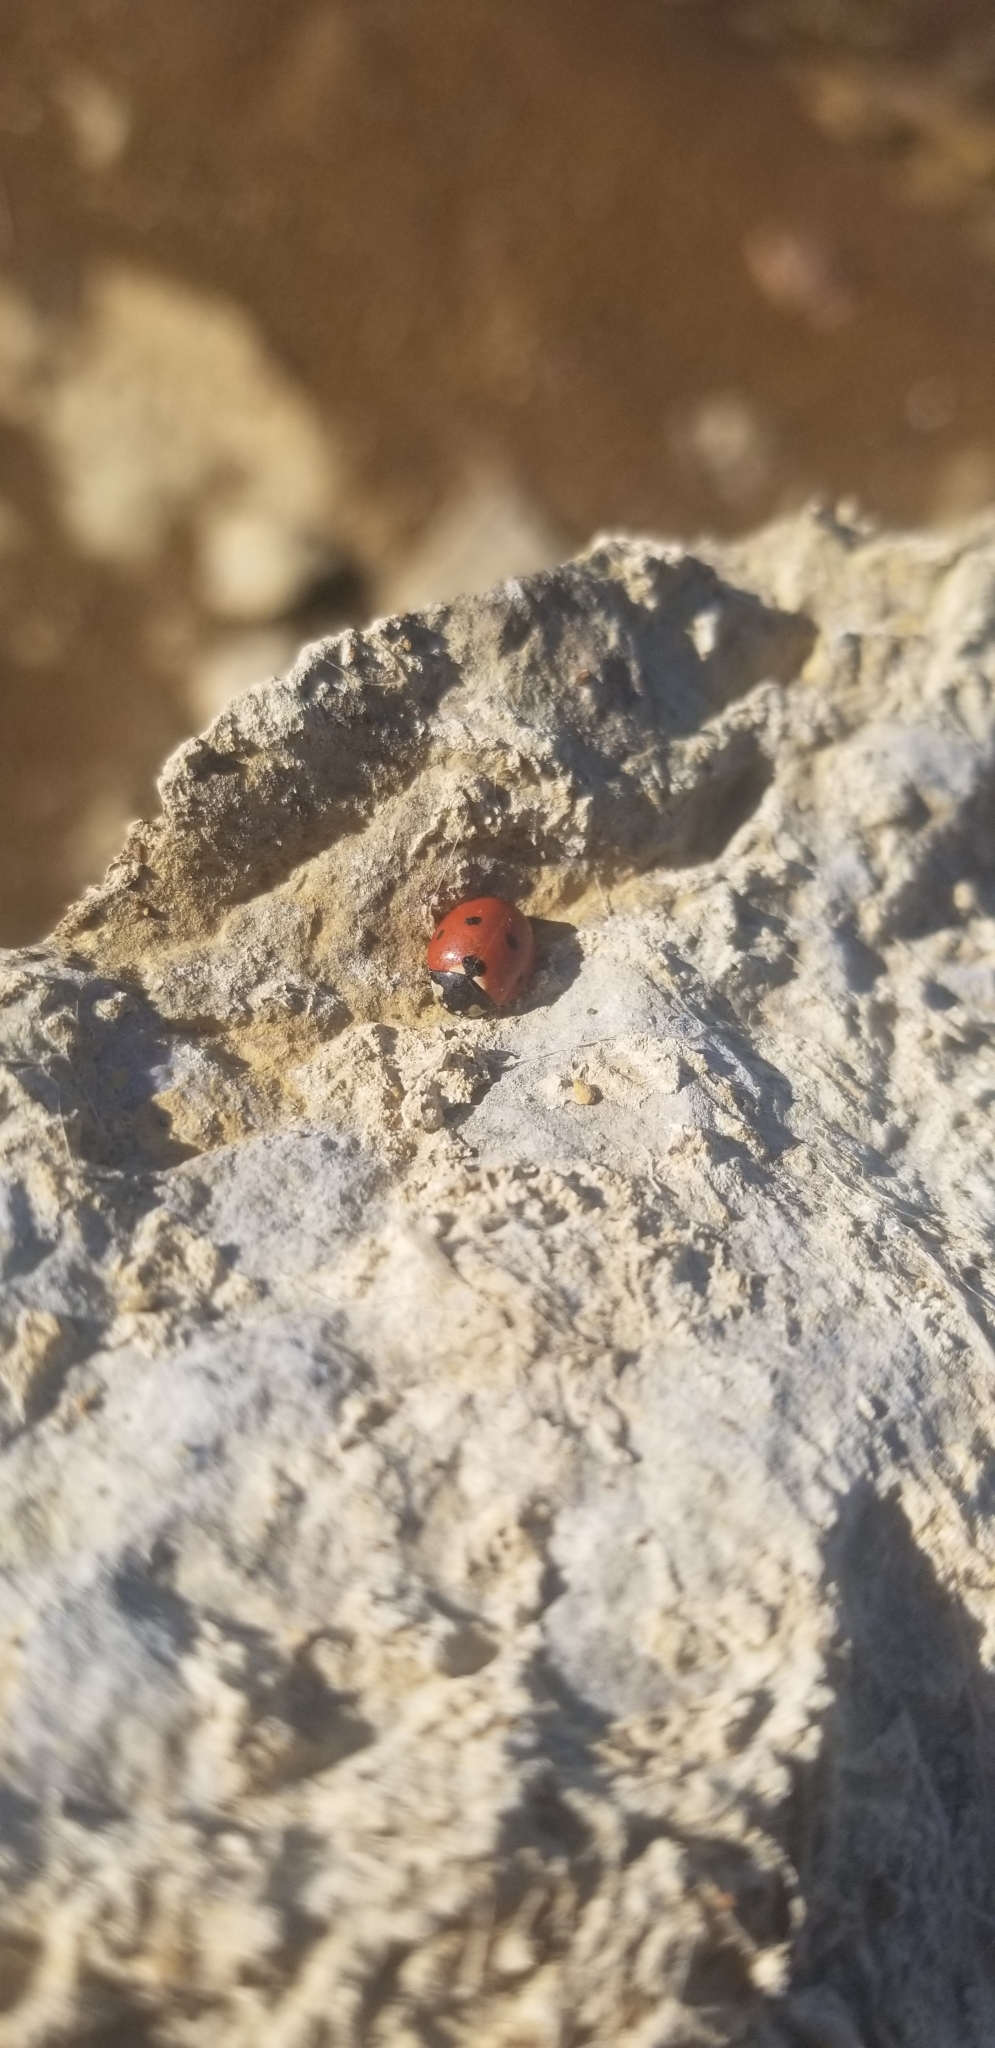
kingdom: Animalia
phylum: Arthropoda
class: Insecta
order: Coleoptera
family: Coccinellidae
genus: Coccinella
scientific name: Coccinella septempunctata
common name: Sevenspotted lady beetle
